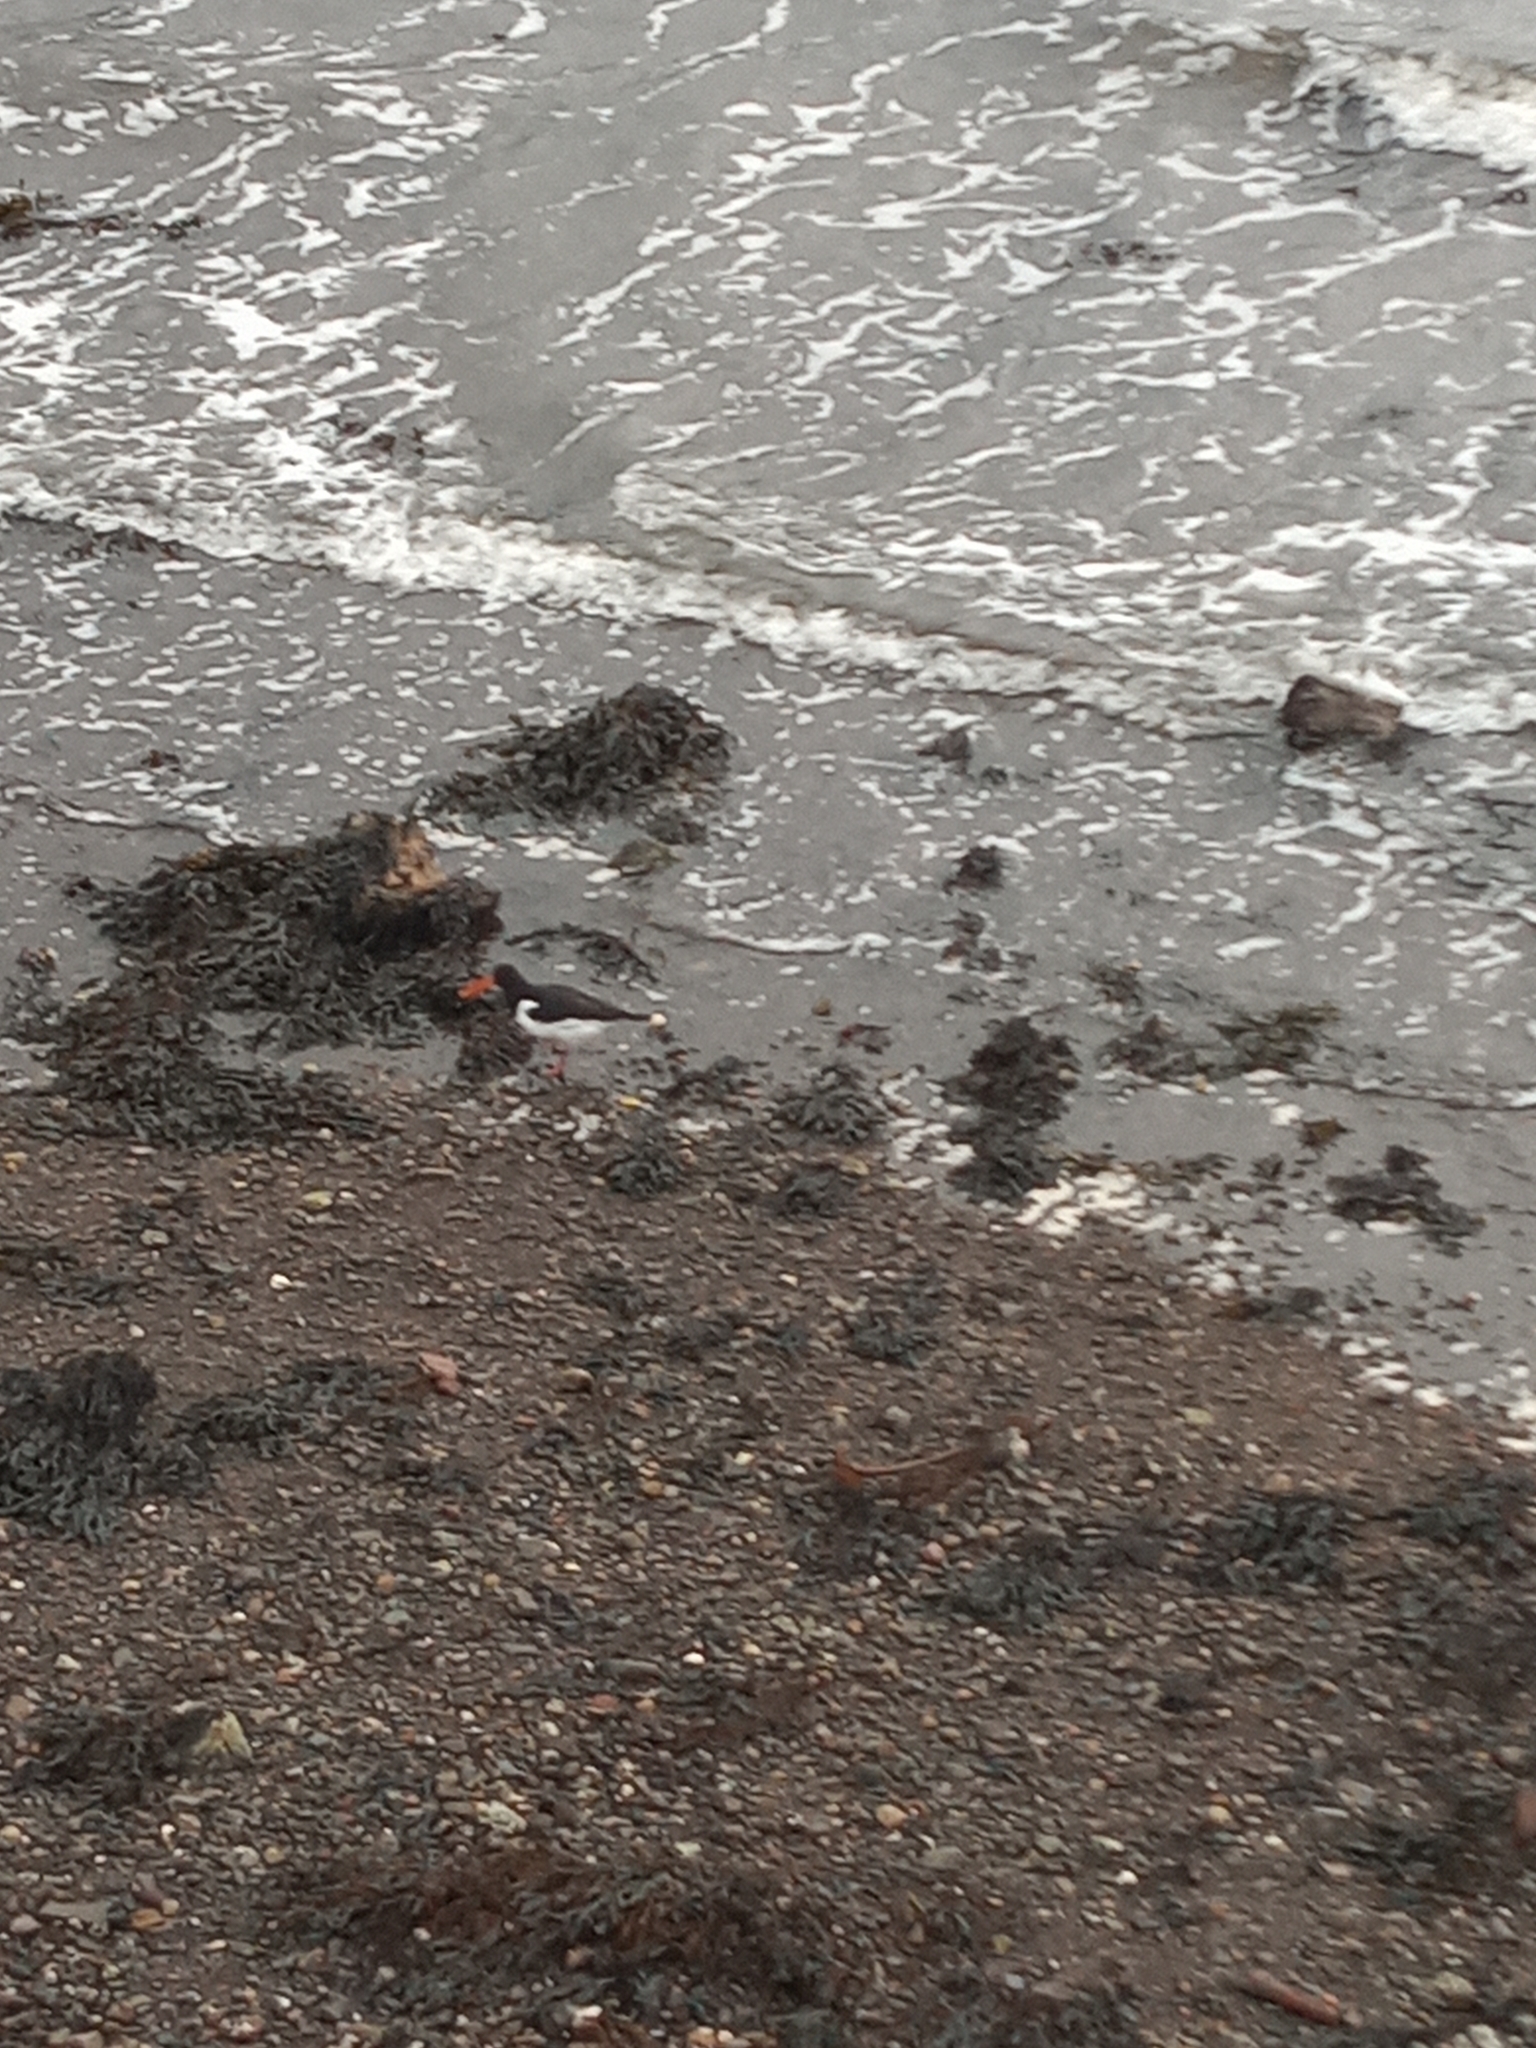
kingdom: Animalia
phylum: Chordata
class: Aves
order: Charadriiformes
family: Haematopodidae
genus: Haematopus
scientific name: Haematopus ostralegus
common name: Eurasian oystercatcher
